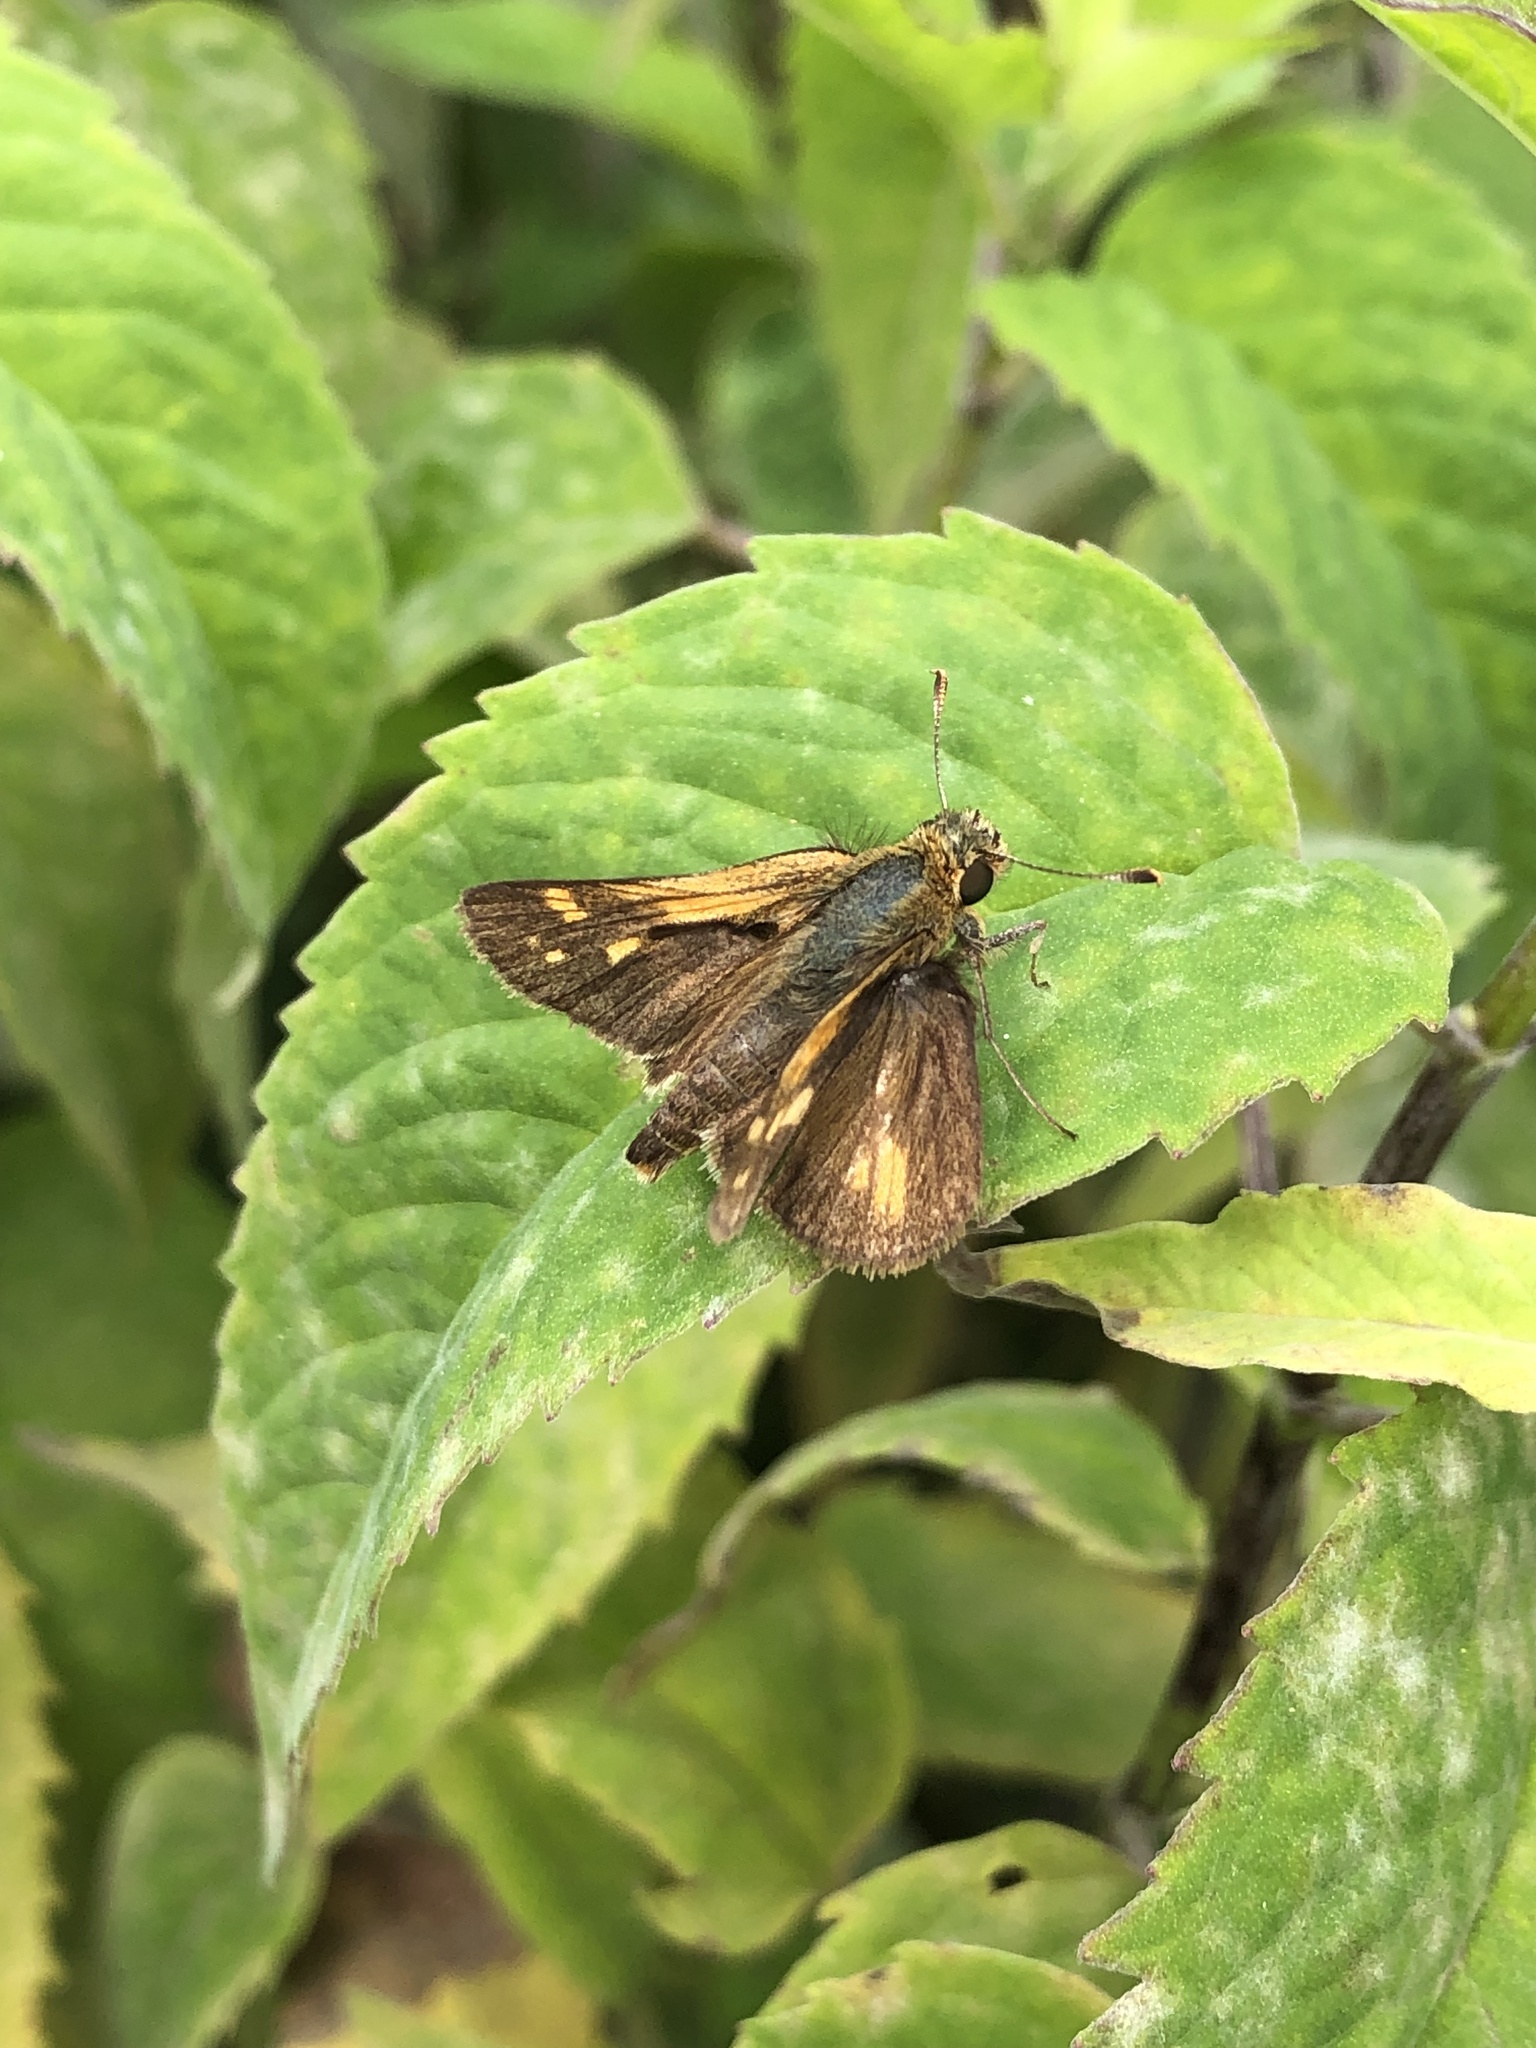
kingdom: Animalia
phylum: Arthropoda
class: Insecta
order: Lepidoptera
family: Hesperiidae
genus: Polites
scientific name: Polites coras
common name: Peck's skipper
